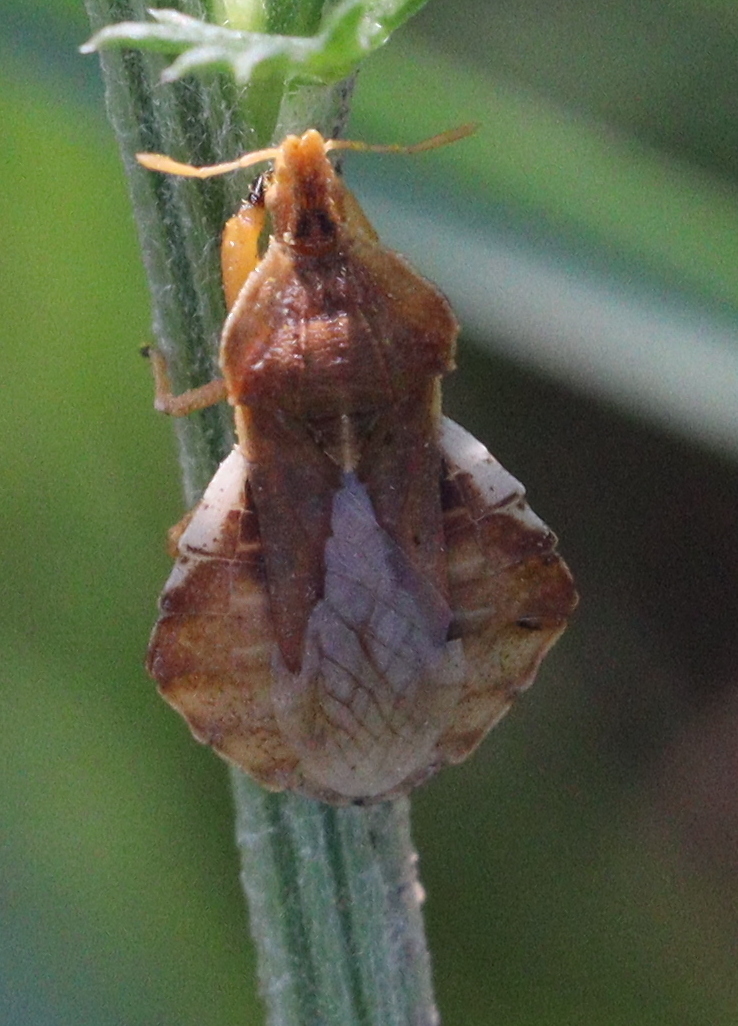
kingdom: Animalia
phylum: Arthropoda
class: Insecta
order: Hemiptera
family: Reduviidae
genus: Phymata
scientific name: Phymata crassipes
